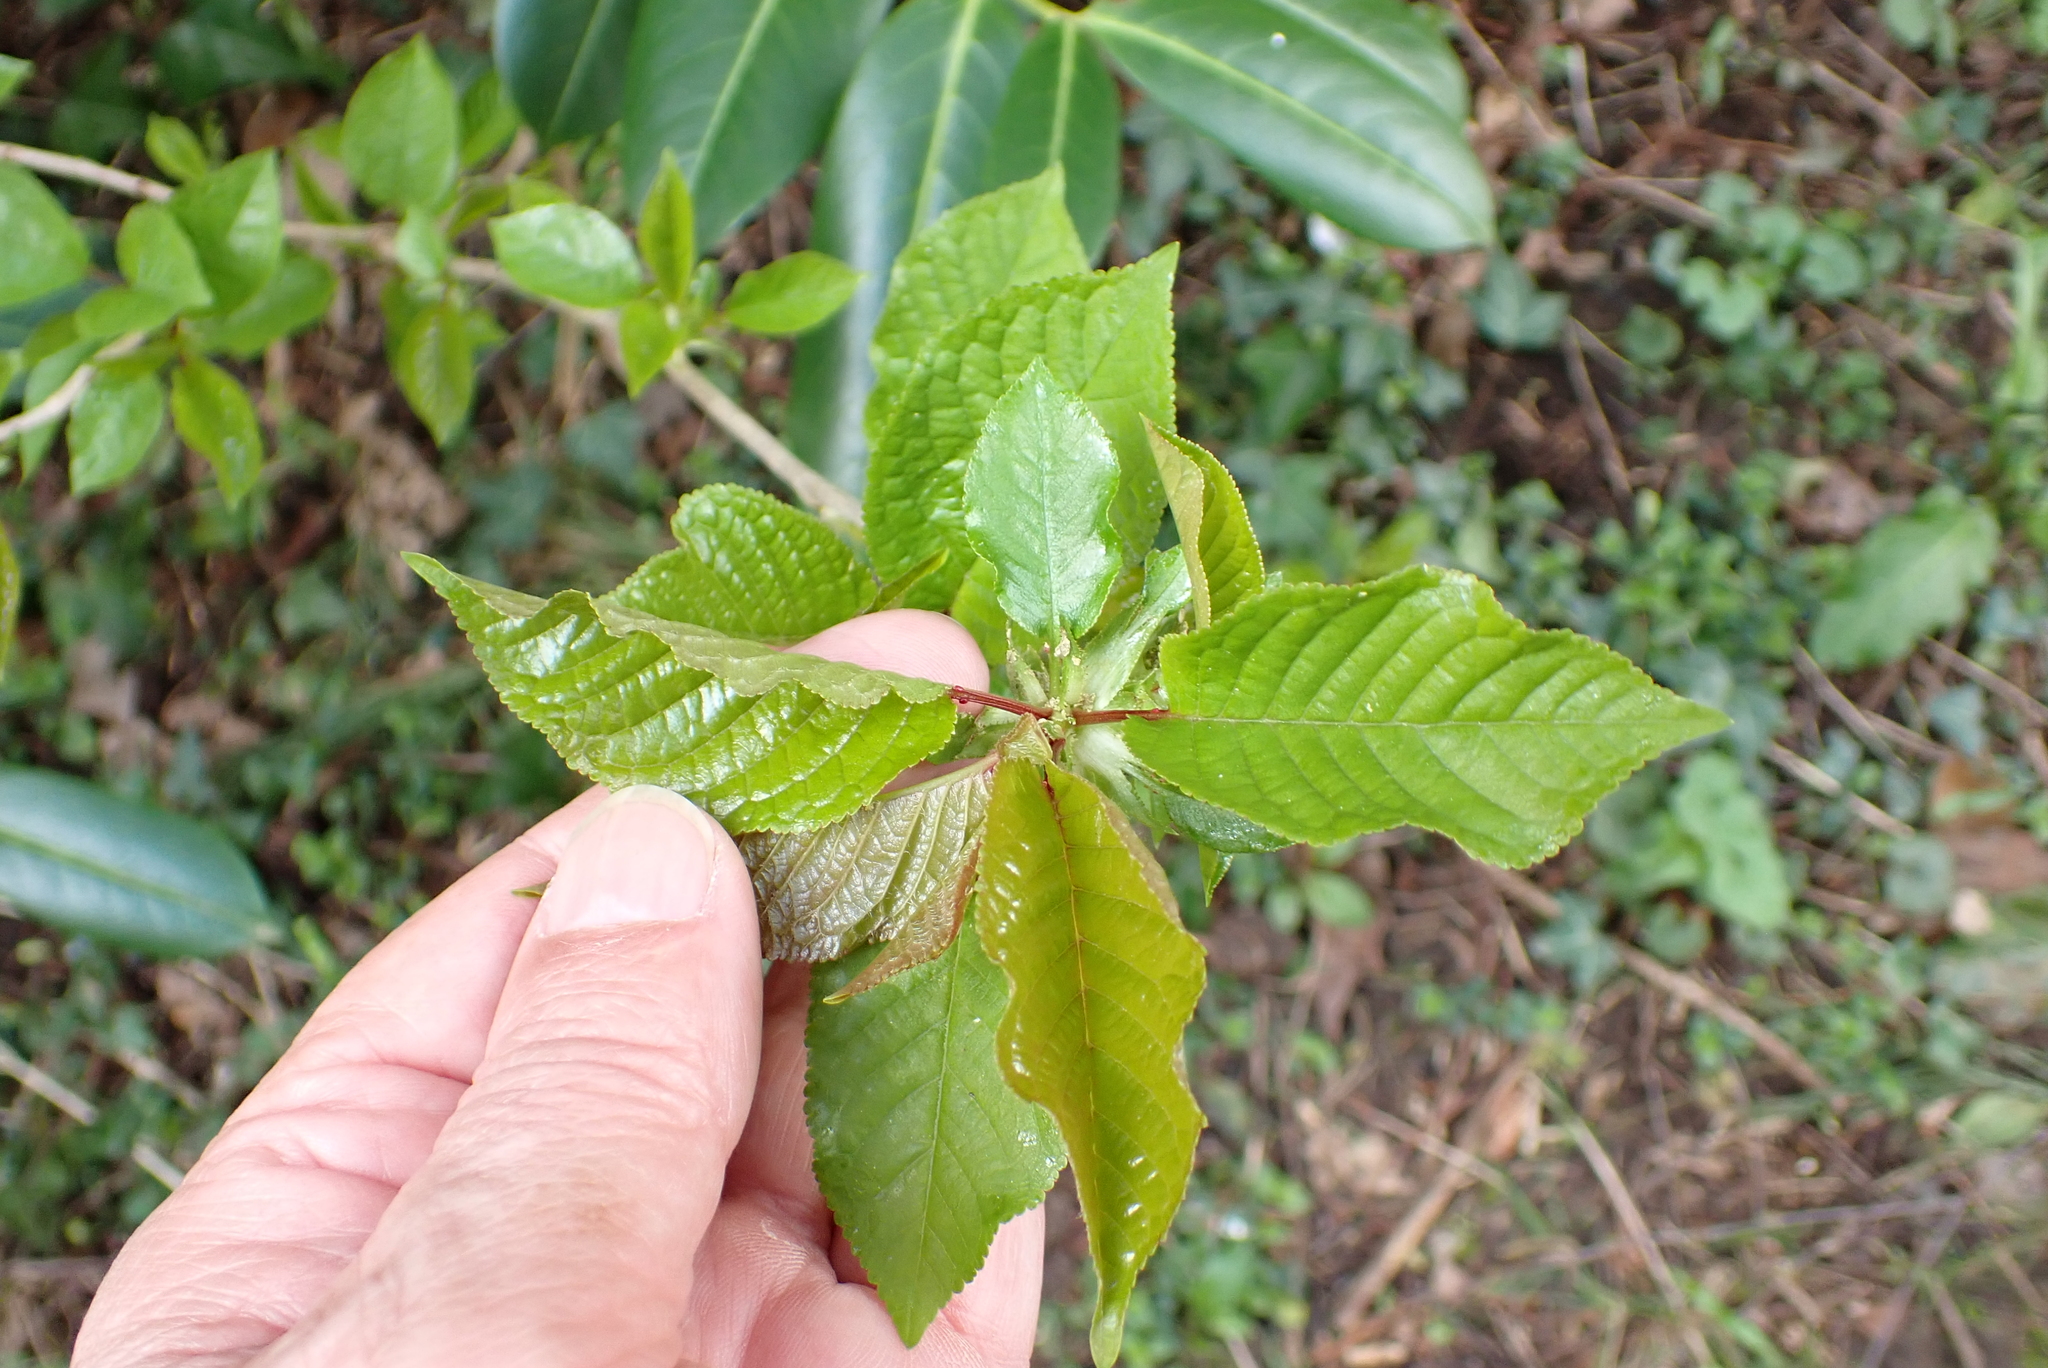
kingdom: Plantae
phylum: Tracheophyta
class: Magnoliopsida
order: Rosales
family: Rosaceae
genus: Prunus
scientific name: Prunus avium
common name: Sweet cherry
